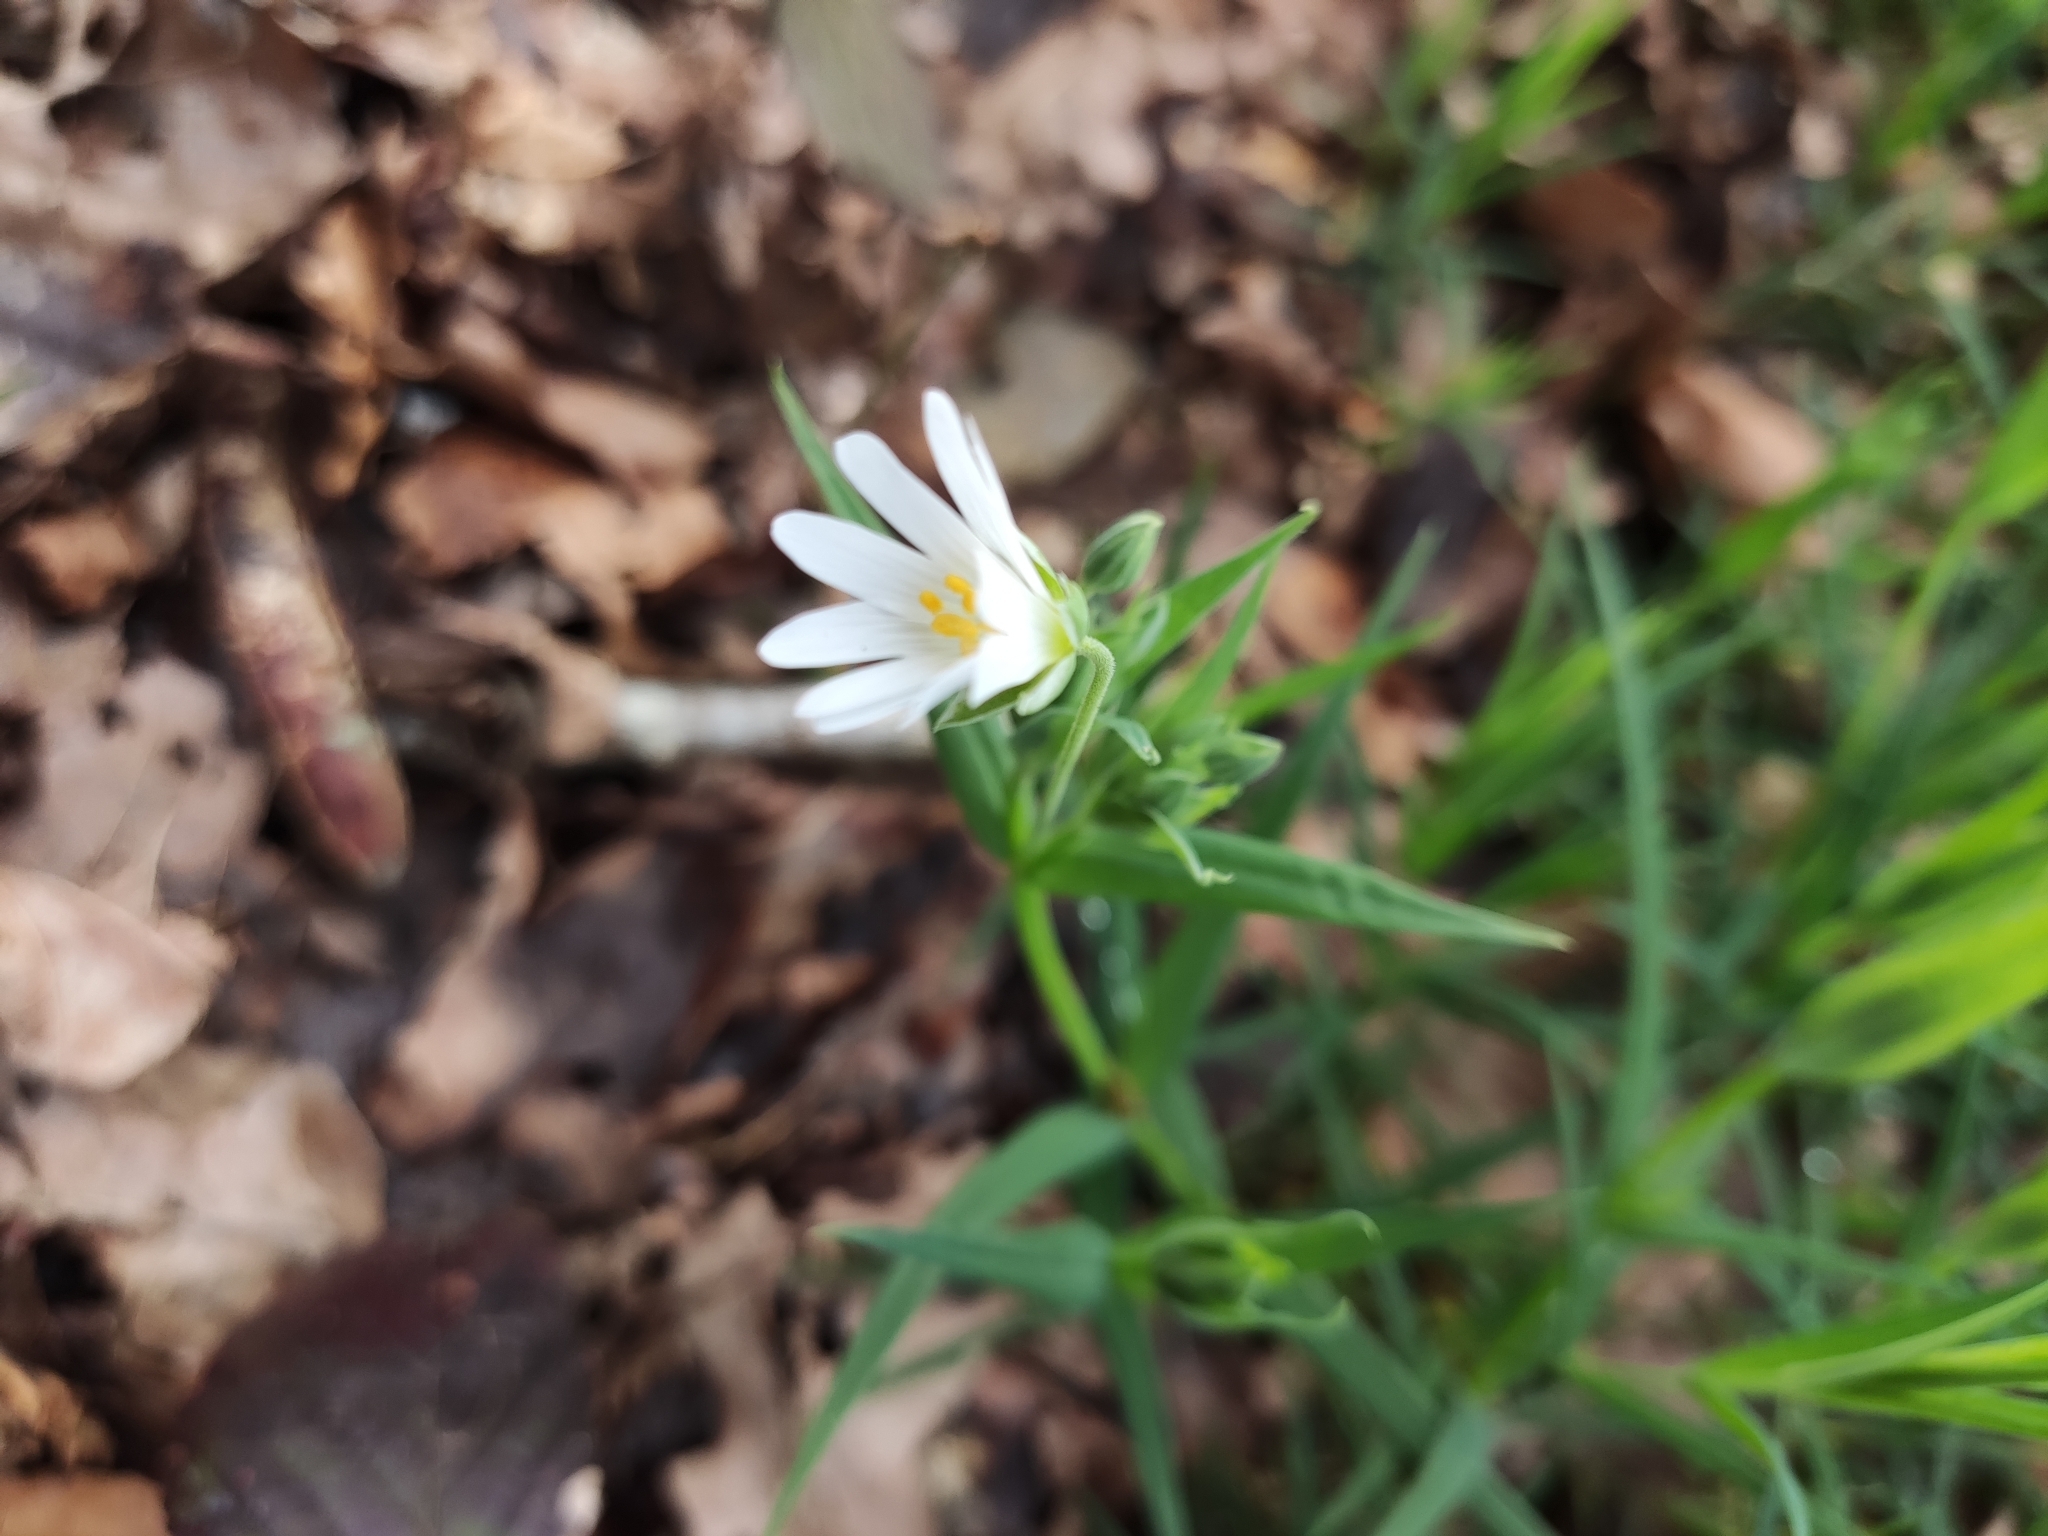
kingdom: Plantae
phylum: Tracheophyta
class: Magnoliopsida
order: Caryophyllales
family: Caryophyllaceae
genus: Rabelera
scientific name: Rabelera holostea
